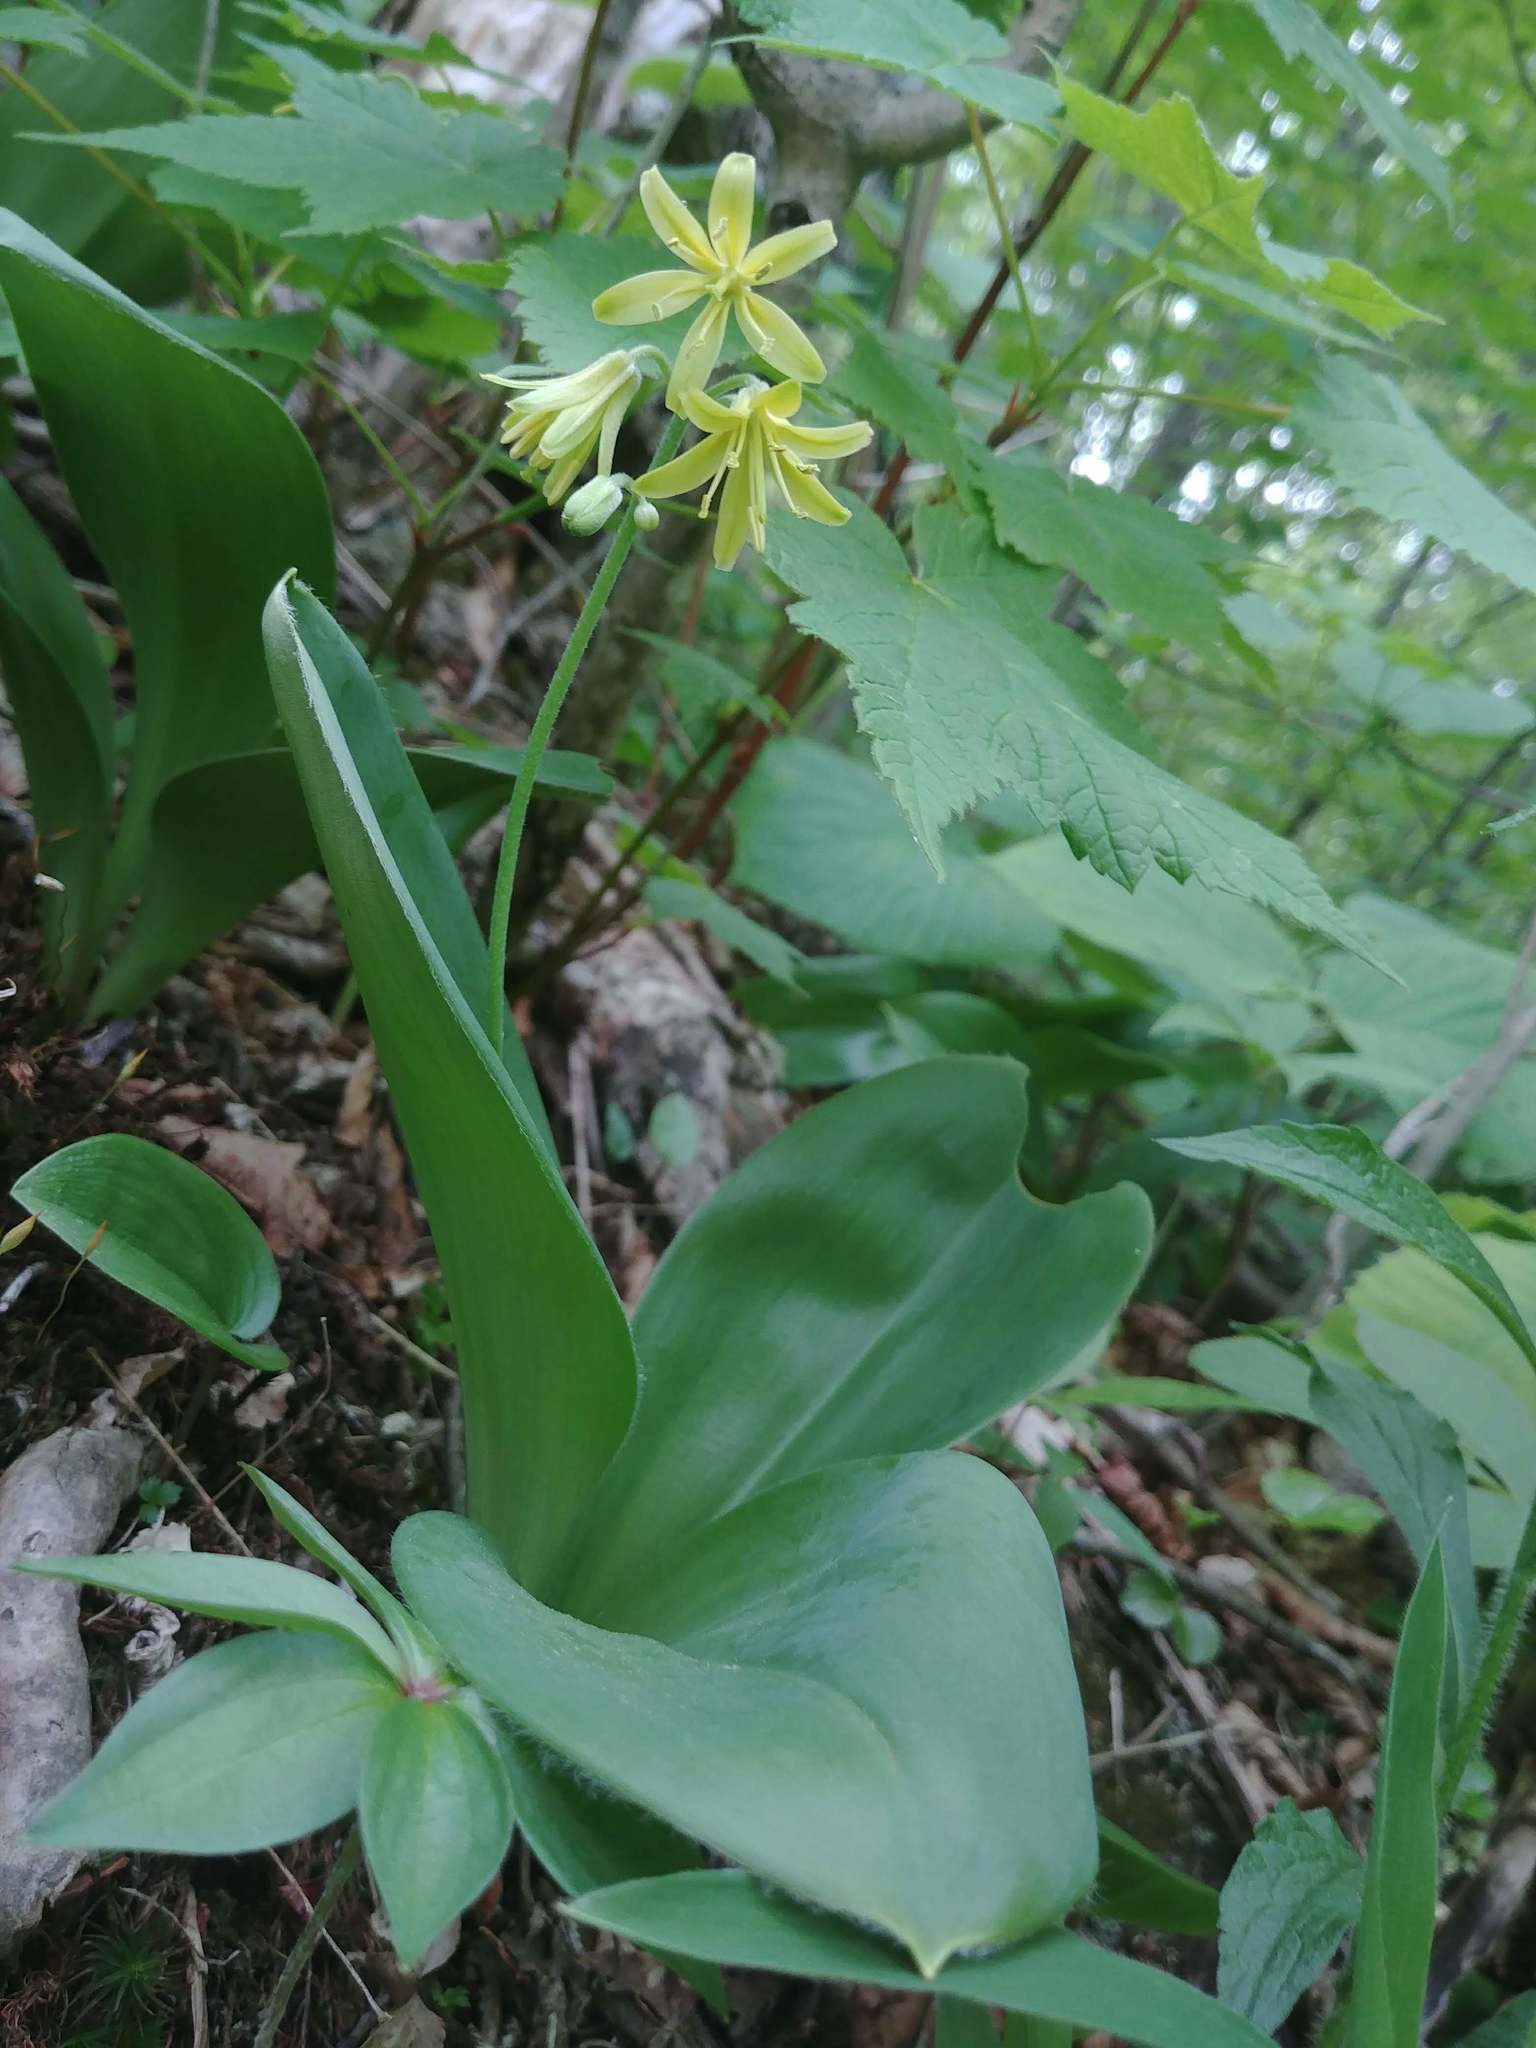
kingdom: Plantae
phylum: Tracheophyta
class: Liliopsida
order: Liliales
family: Liliaceae
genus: Clintonia
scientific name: Clintonia borealis
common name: Yellow clintonia
